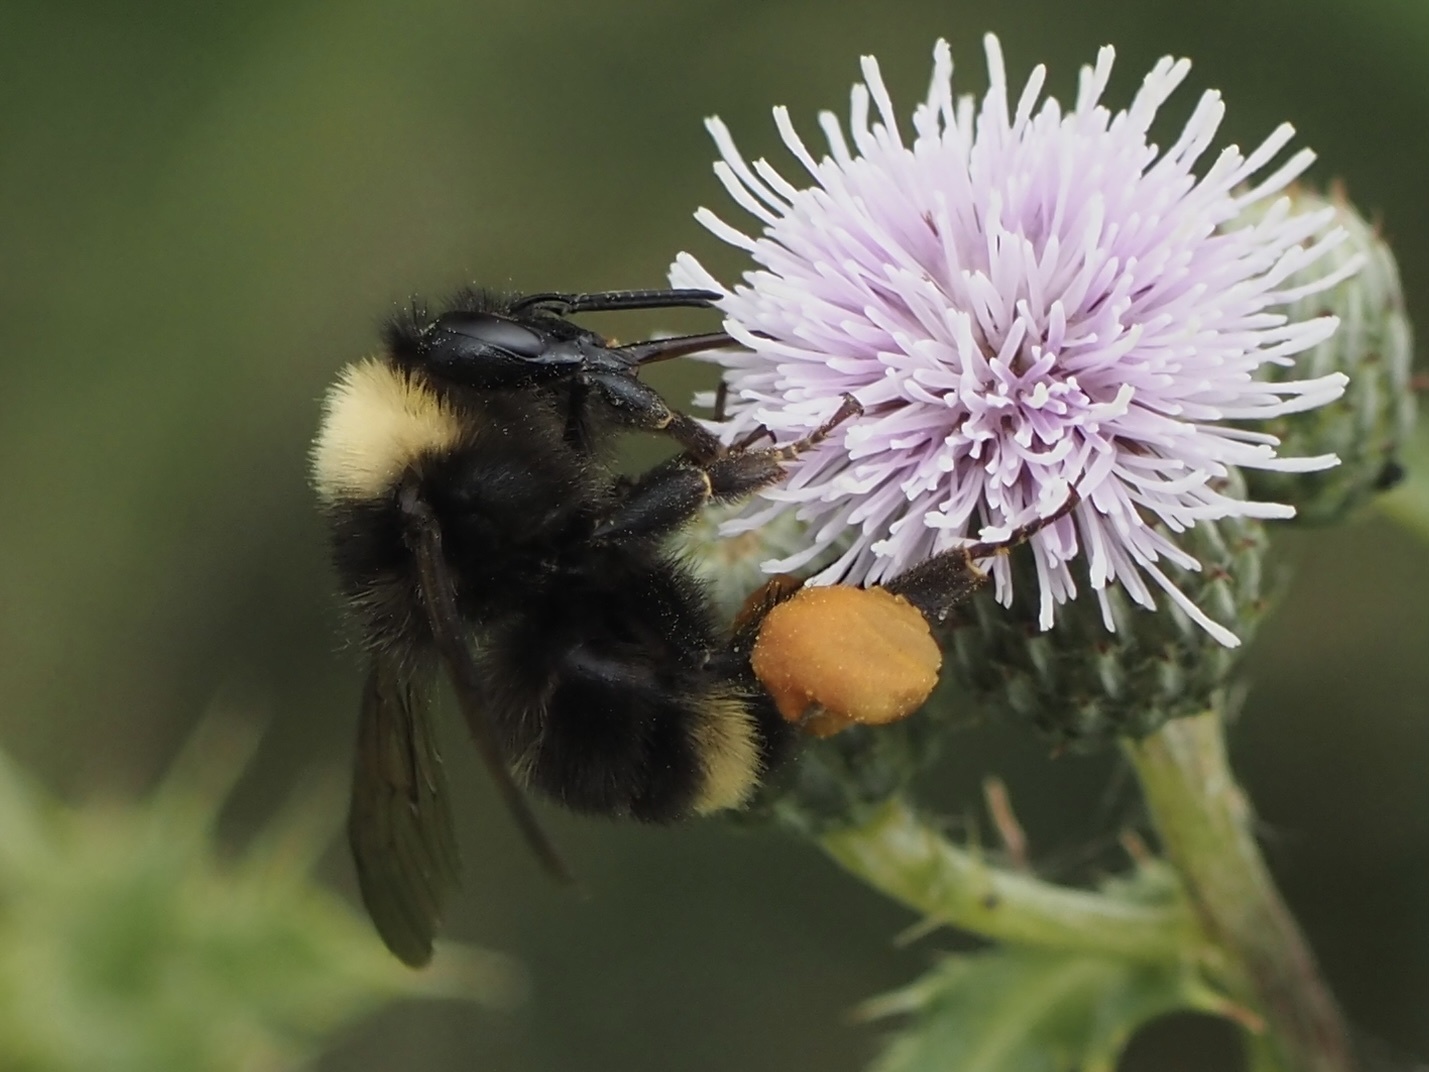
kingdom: Animalia
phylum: Arthropoda
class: Insecta
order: Hymenoptera
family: Apidae
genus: Bombus
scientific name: Bombus californicus
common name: California bumble bee
